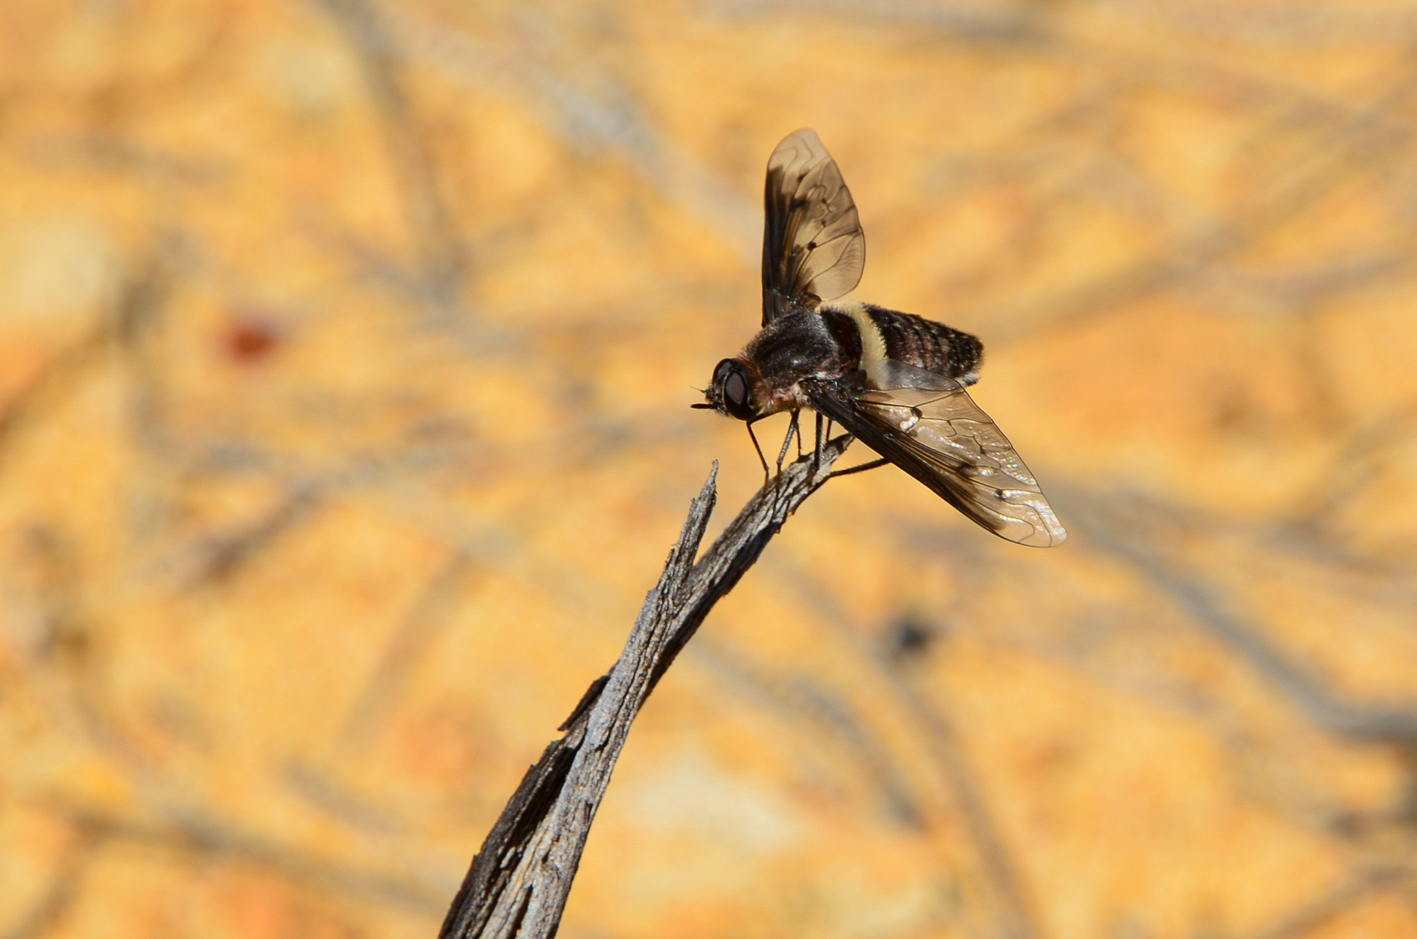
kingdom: Animalia
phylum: Arthropoda
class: Insecta
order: Diptera
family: Bombyliidae
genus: Oncodosia
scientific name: Oncodosia patula
